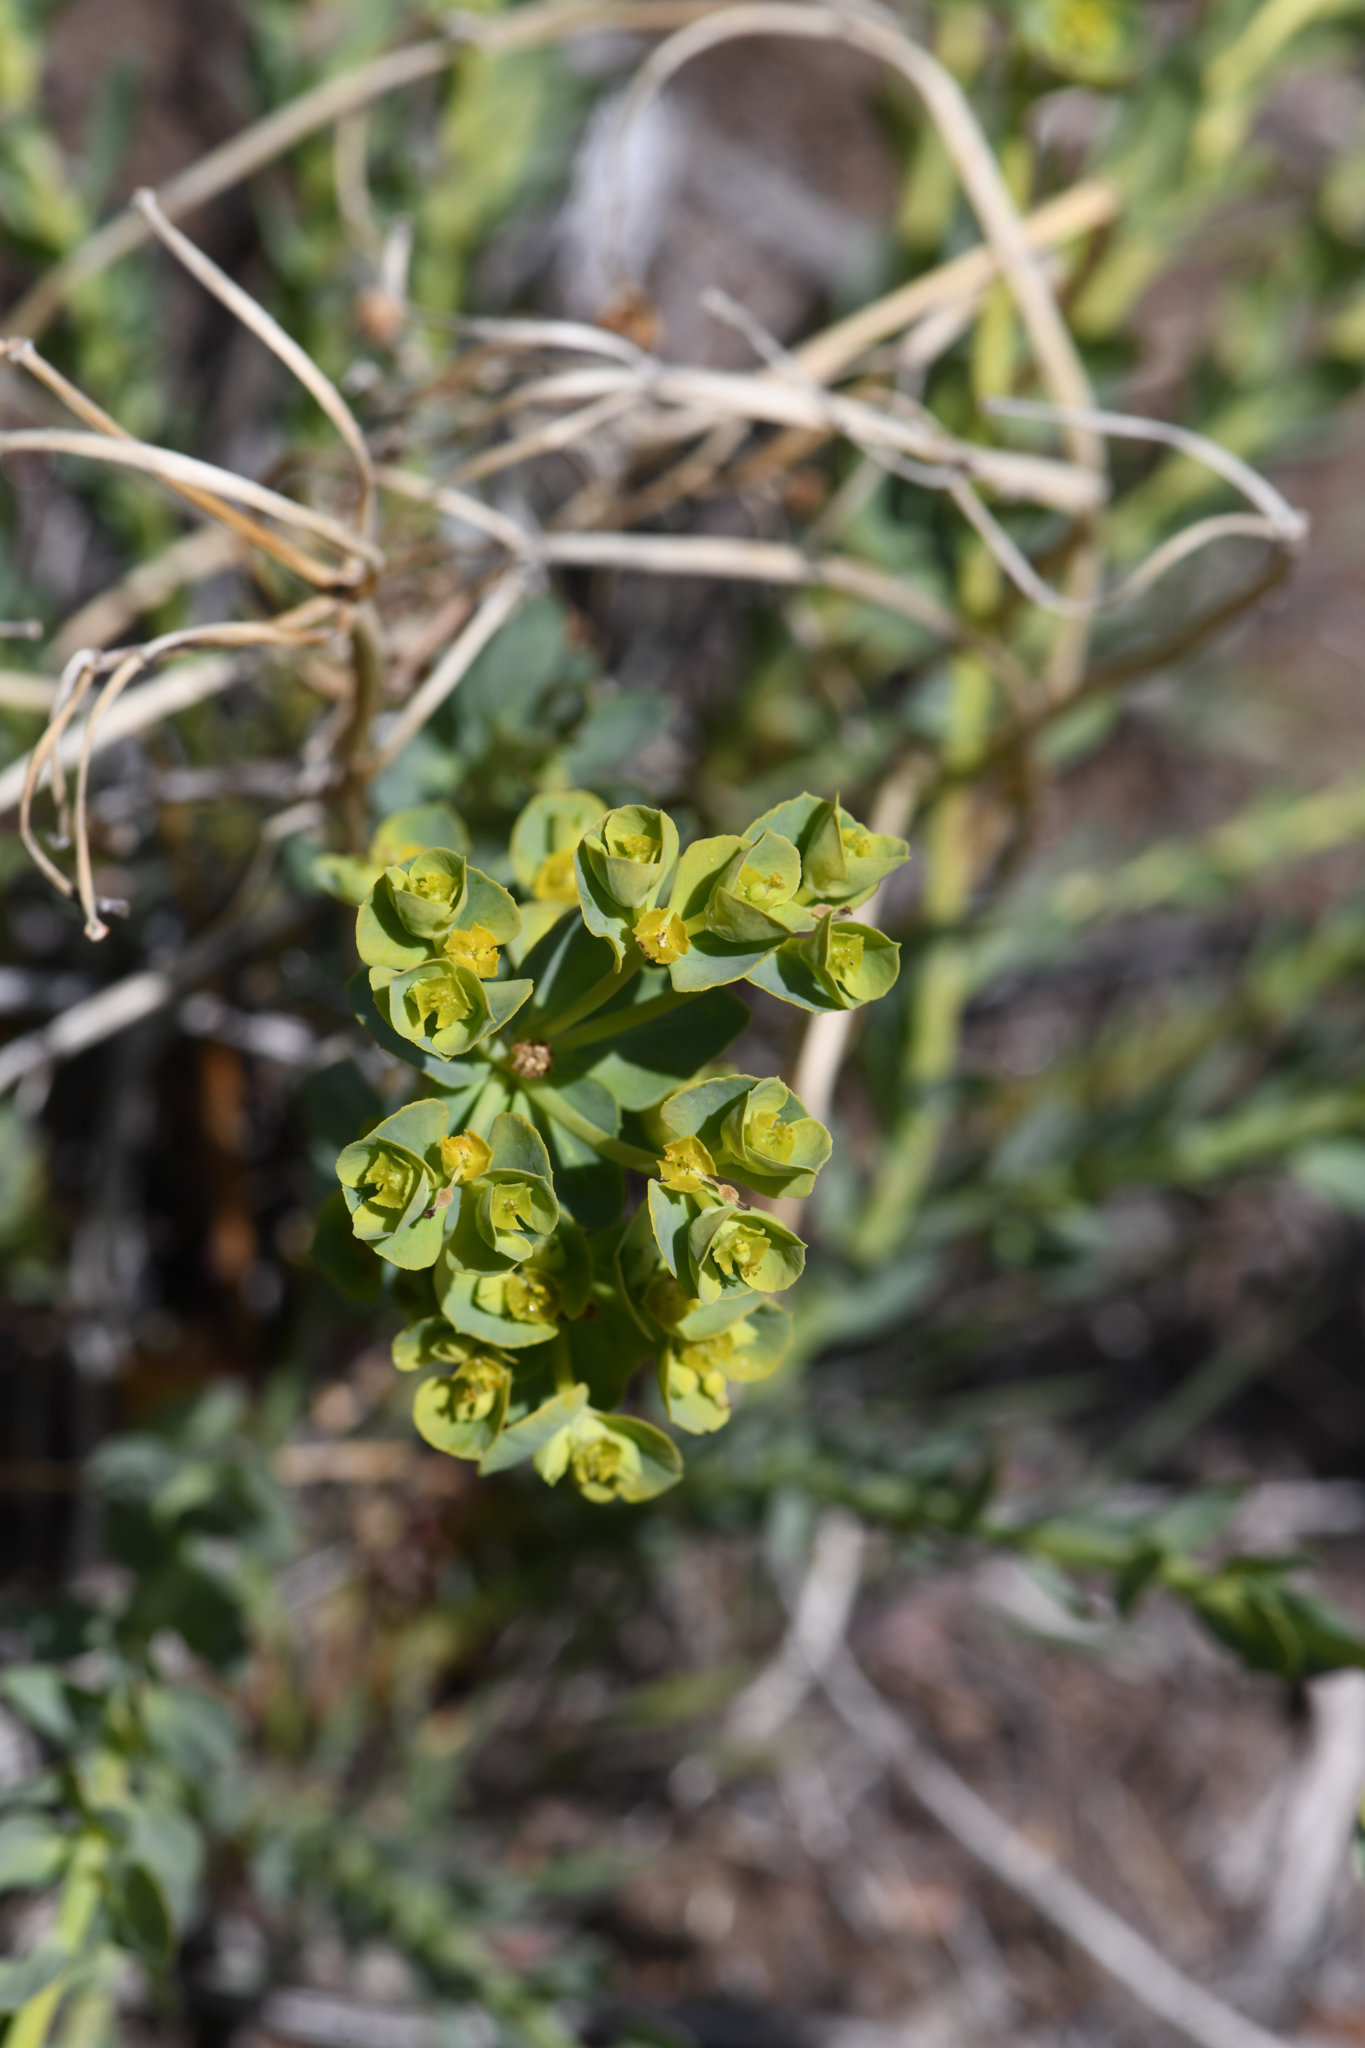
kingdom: Plantae
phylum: Tracheophyta
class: Magnoliopsida
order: Malpighiales
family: Euphorbiaceae
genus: Euphorbia
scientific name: Euphorbia lurida
